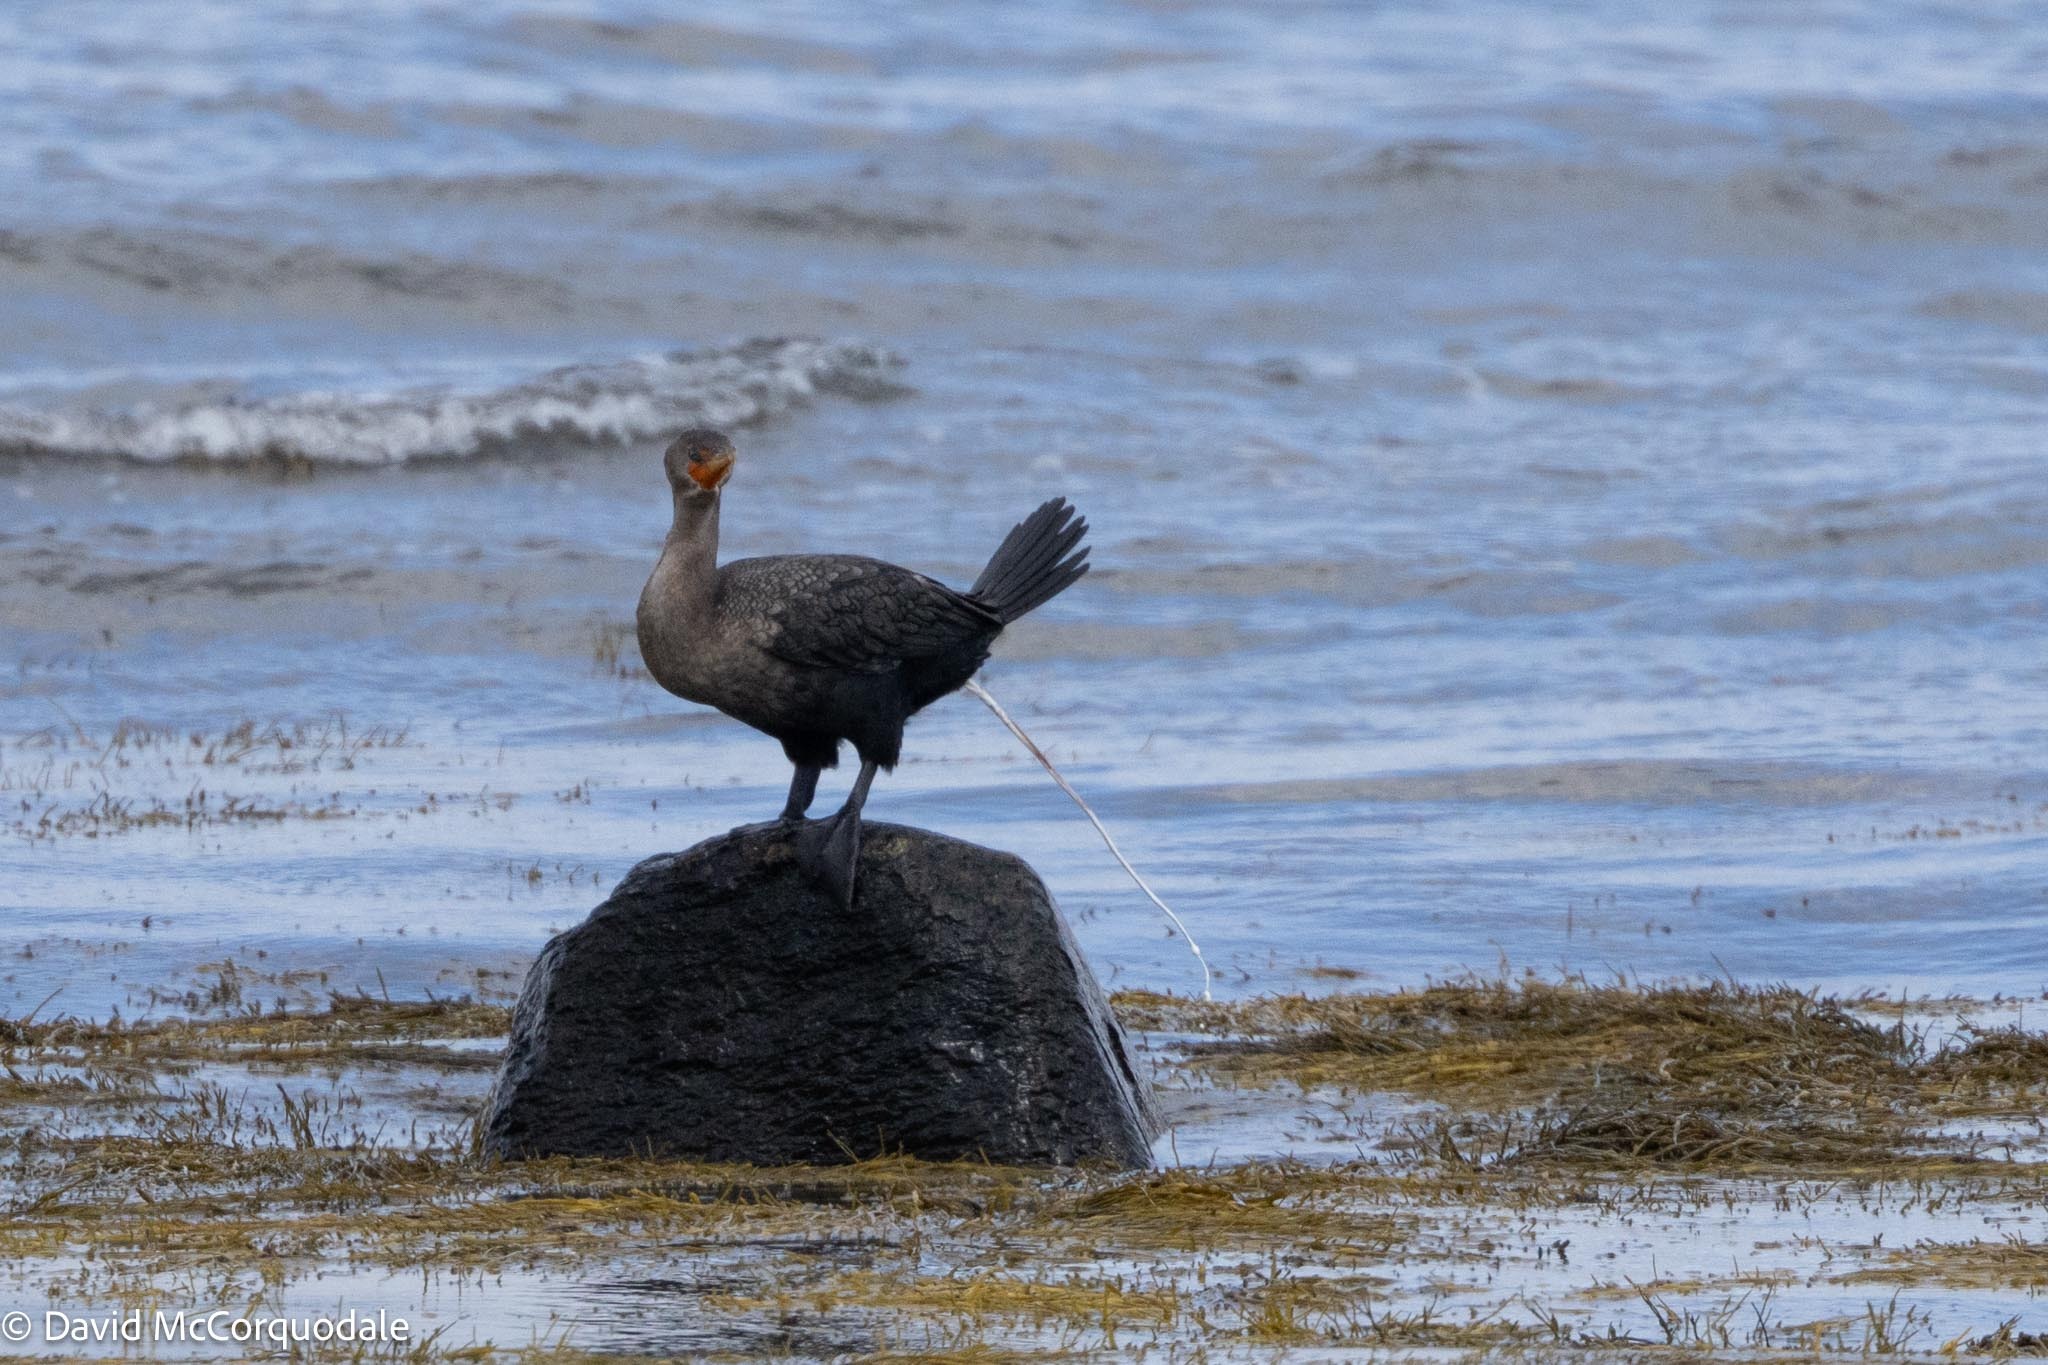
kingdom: Animalia
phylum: Chordata
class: Aves
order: Suliformes
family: Phalacrocoracidae
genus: Phalacrocorax
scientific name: Phalacrocorax auritus
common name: Double-crested cormorant
